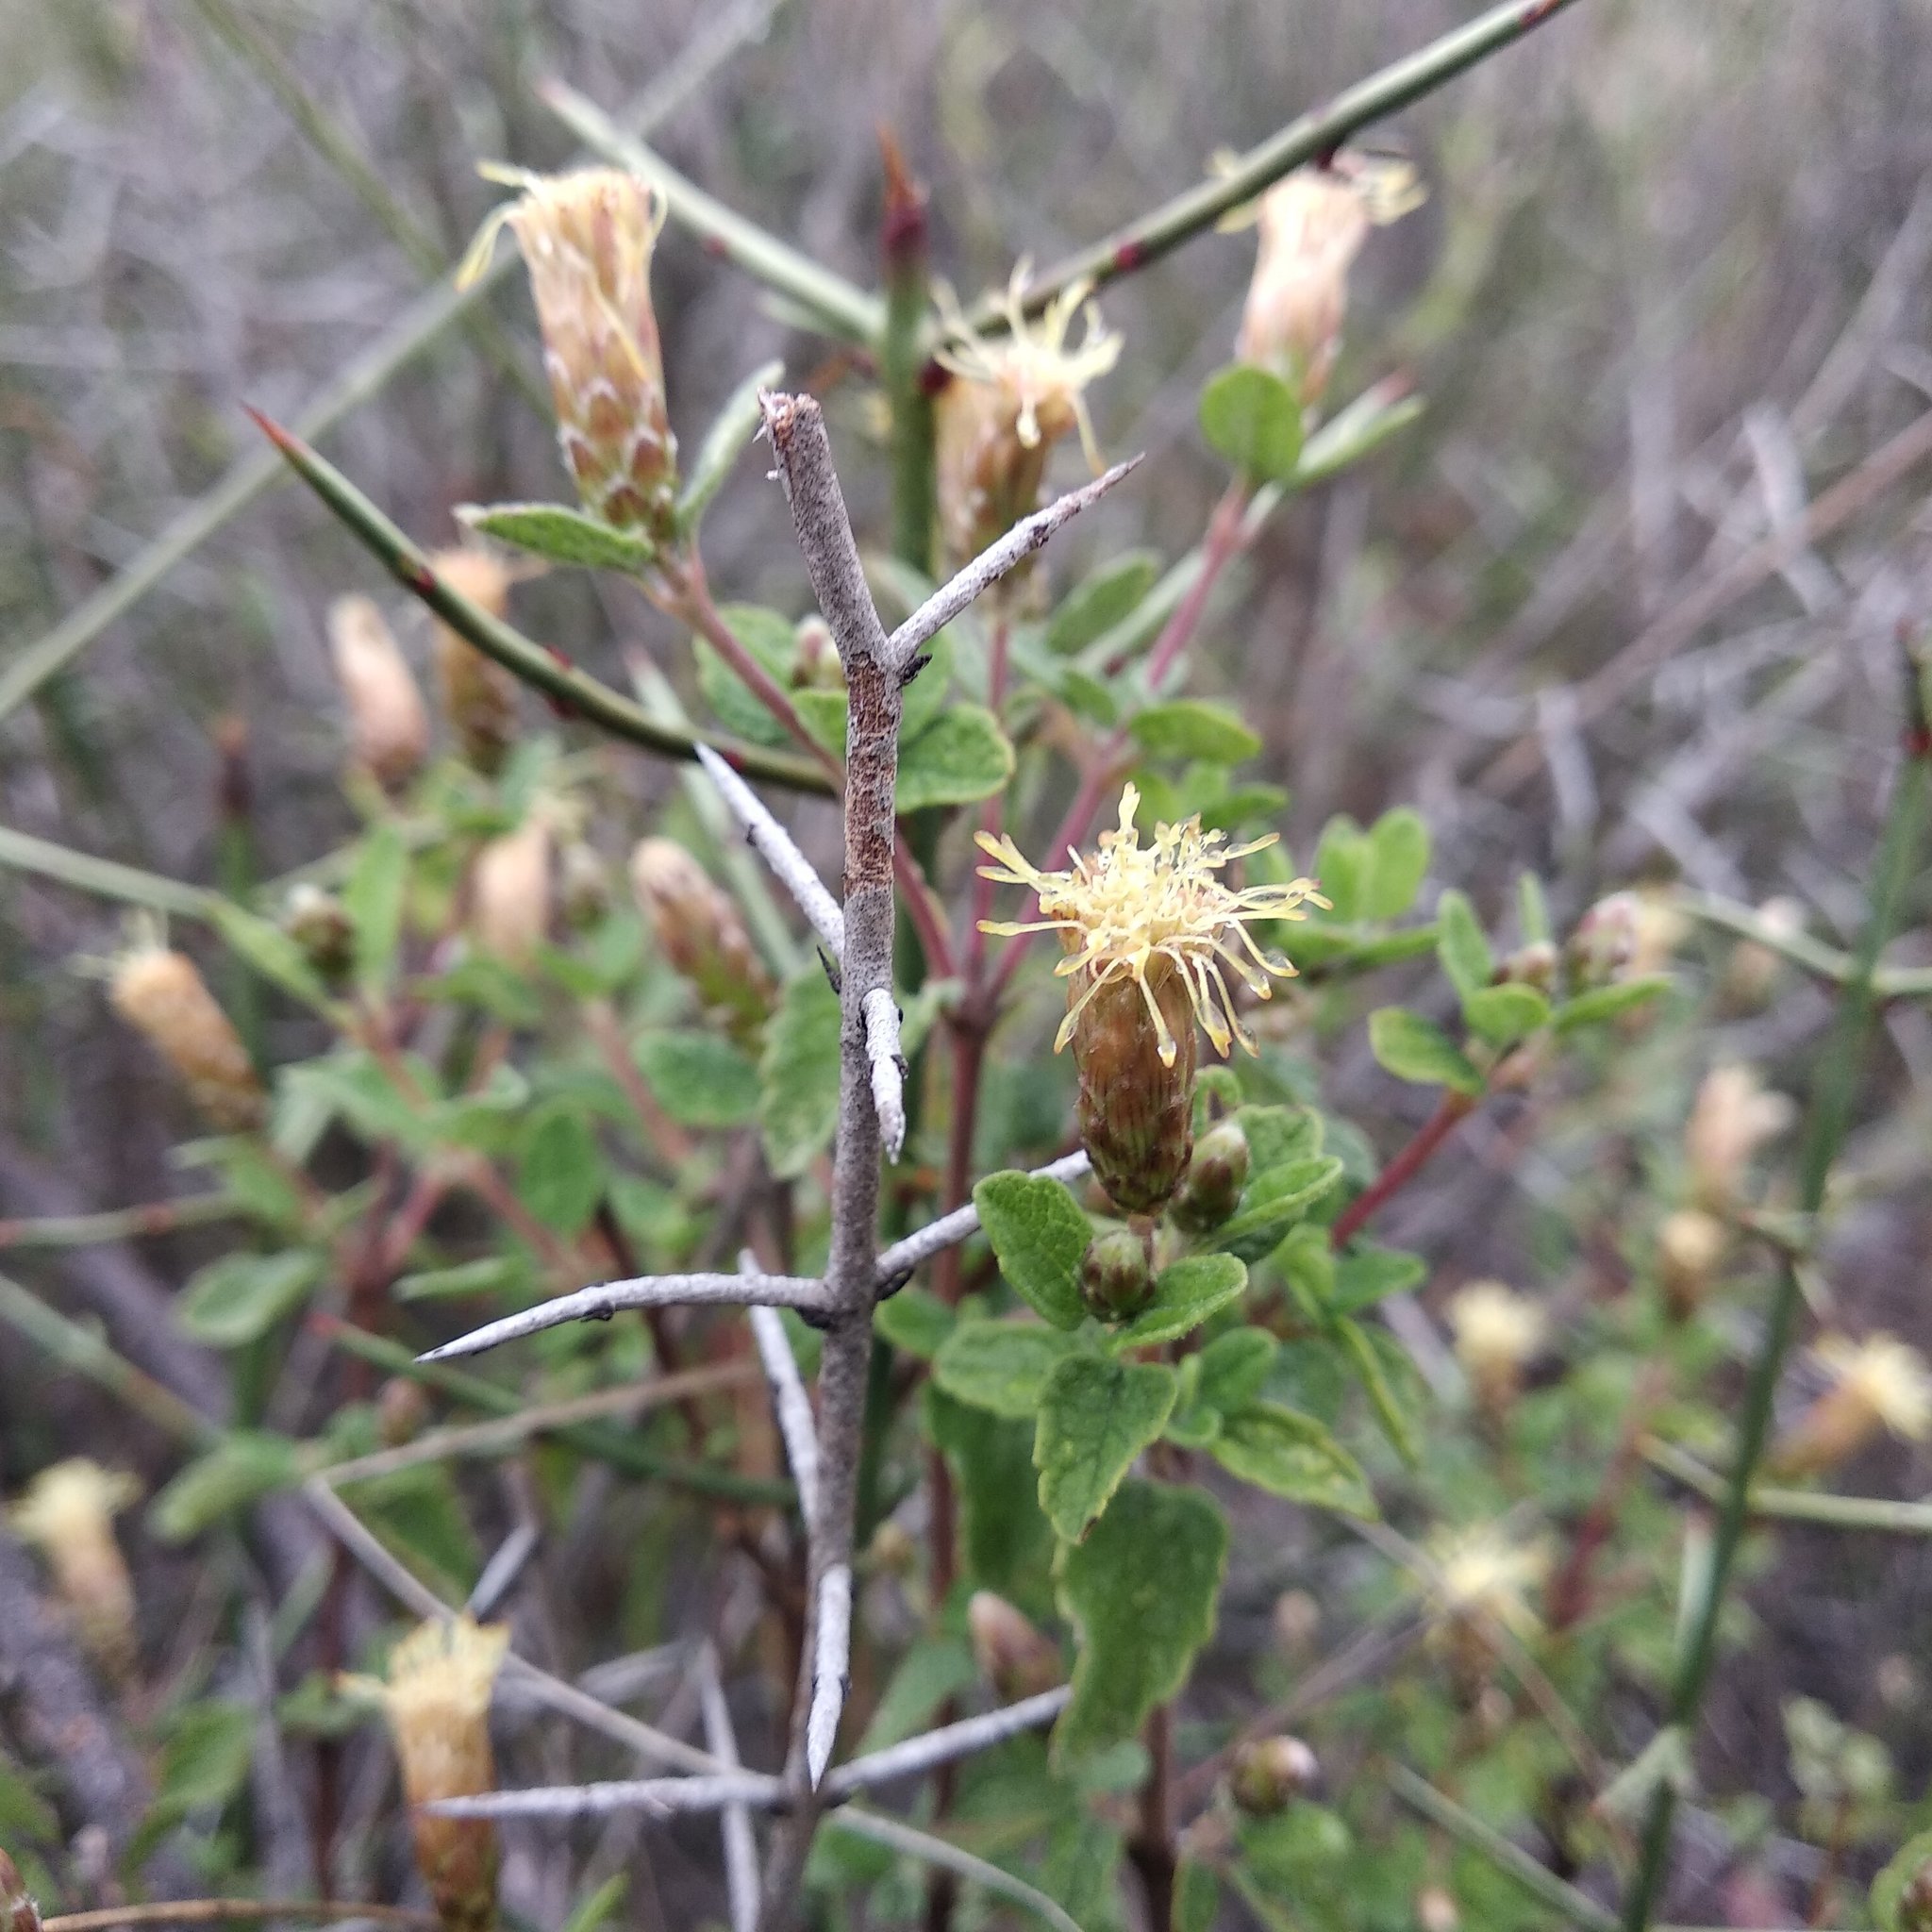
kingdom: Plantae
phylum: Tracheophyta
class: Magnoliopsida
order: Asterales
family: Asteraceae
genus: Brickellia
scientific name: Brickellia veronicifolia
